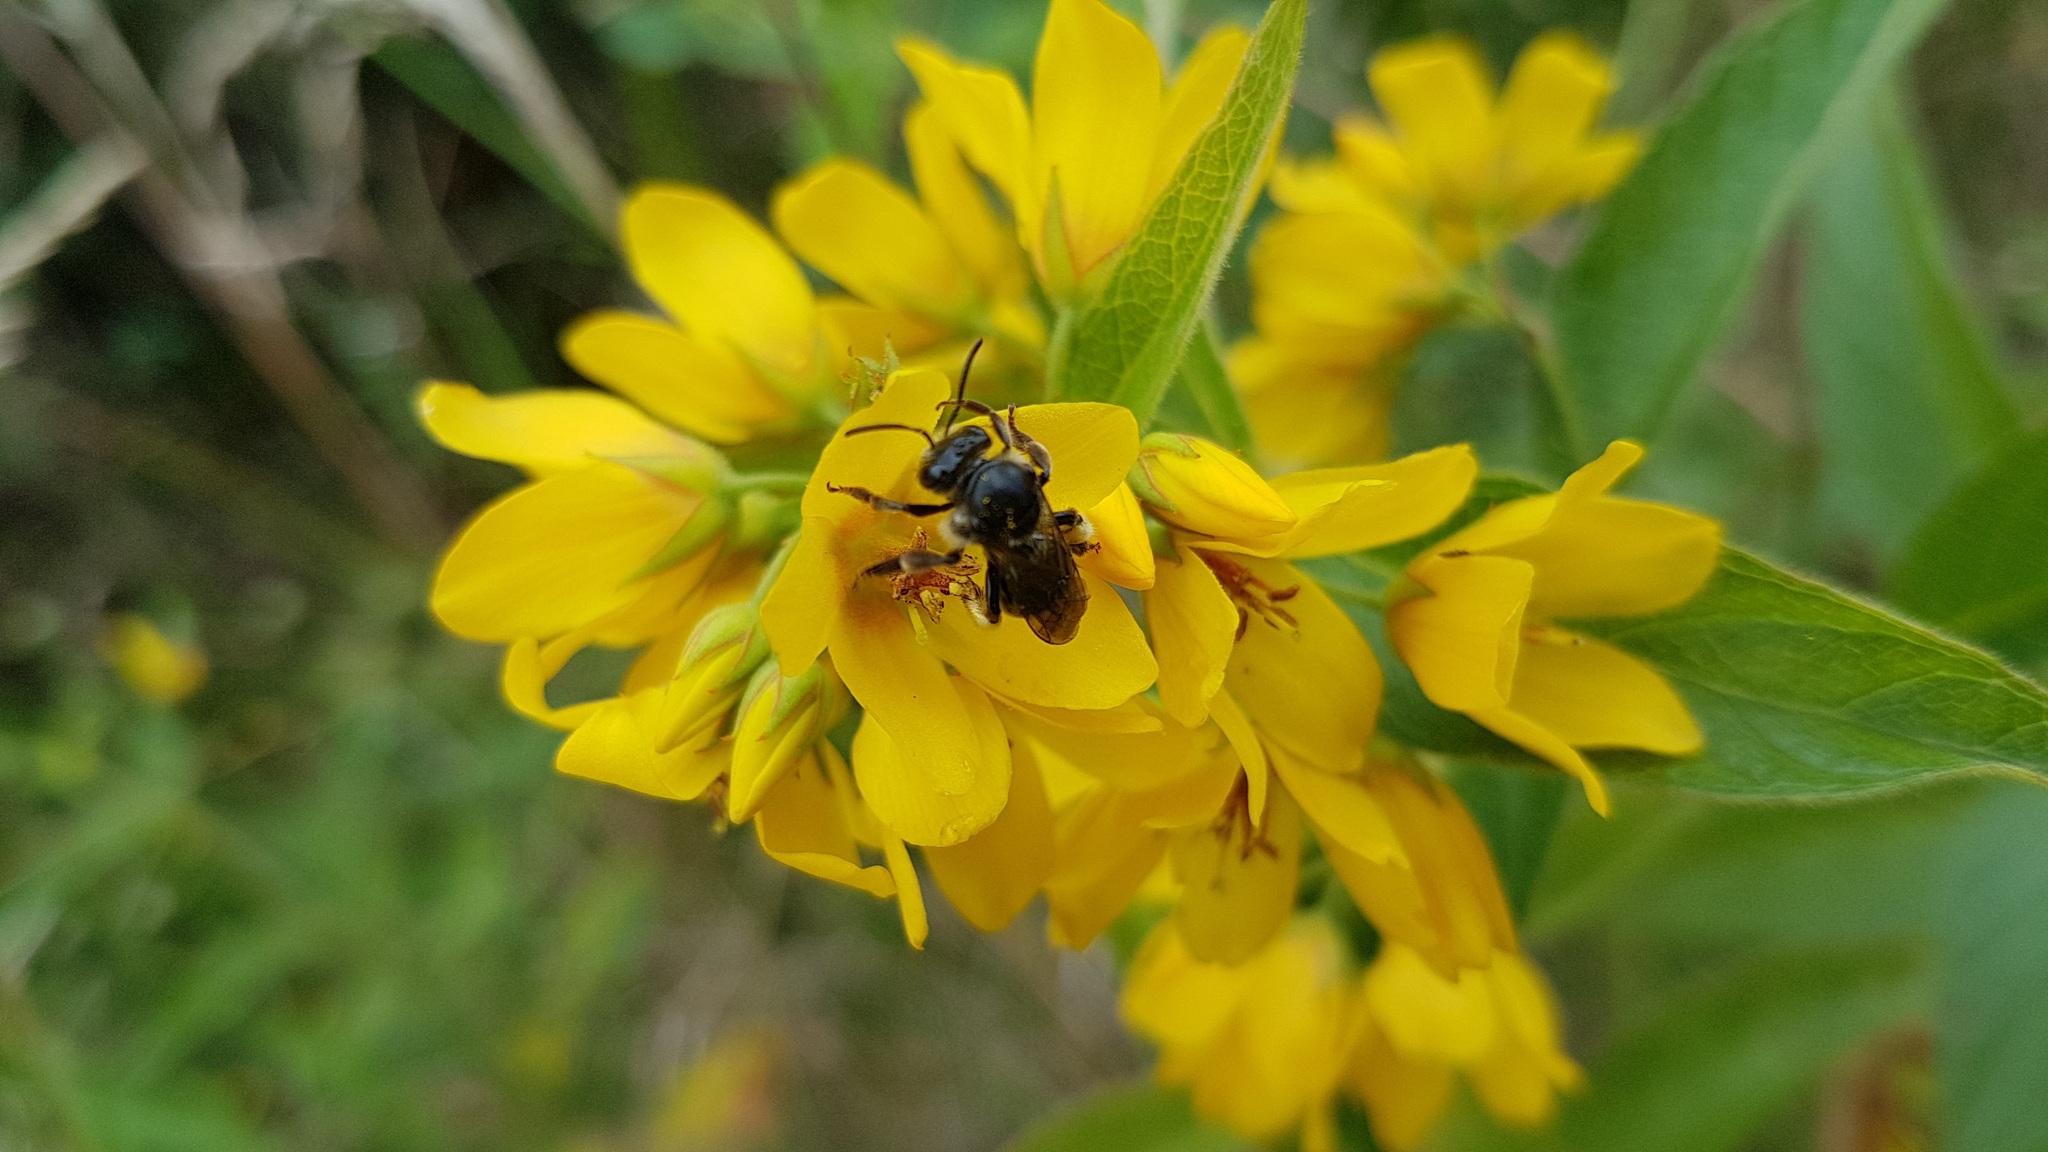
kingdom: Animalia
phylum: Arthropoda
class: Insecta
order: Hymenoptera
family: Melittidae
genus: Macropis
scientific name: Macropis europaea
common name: Yellow loosestrife bee
